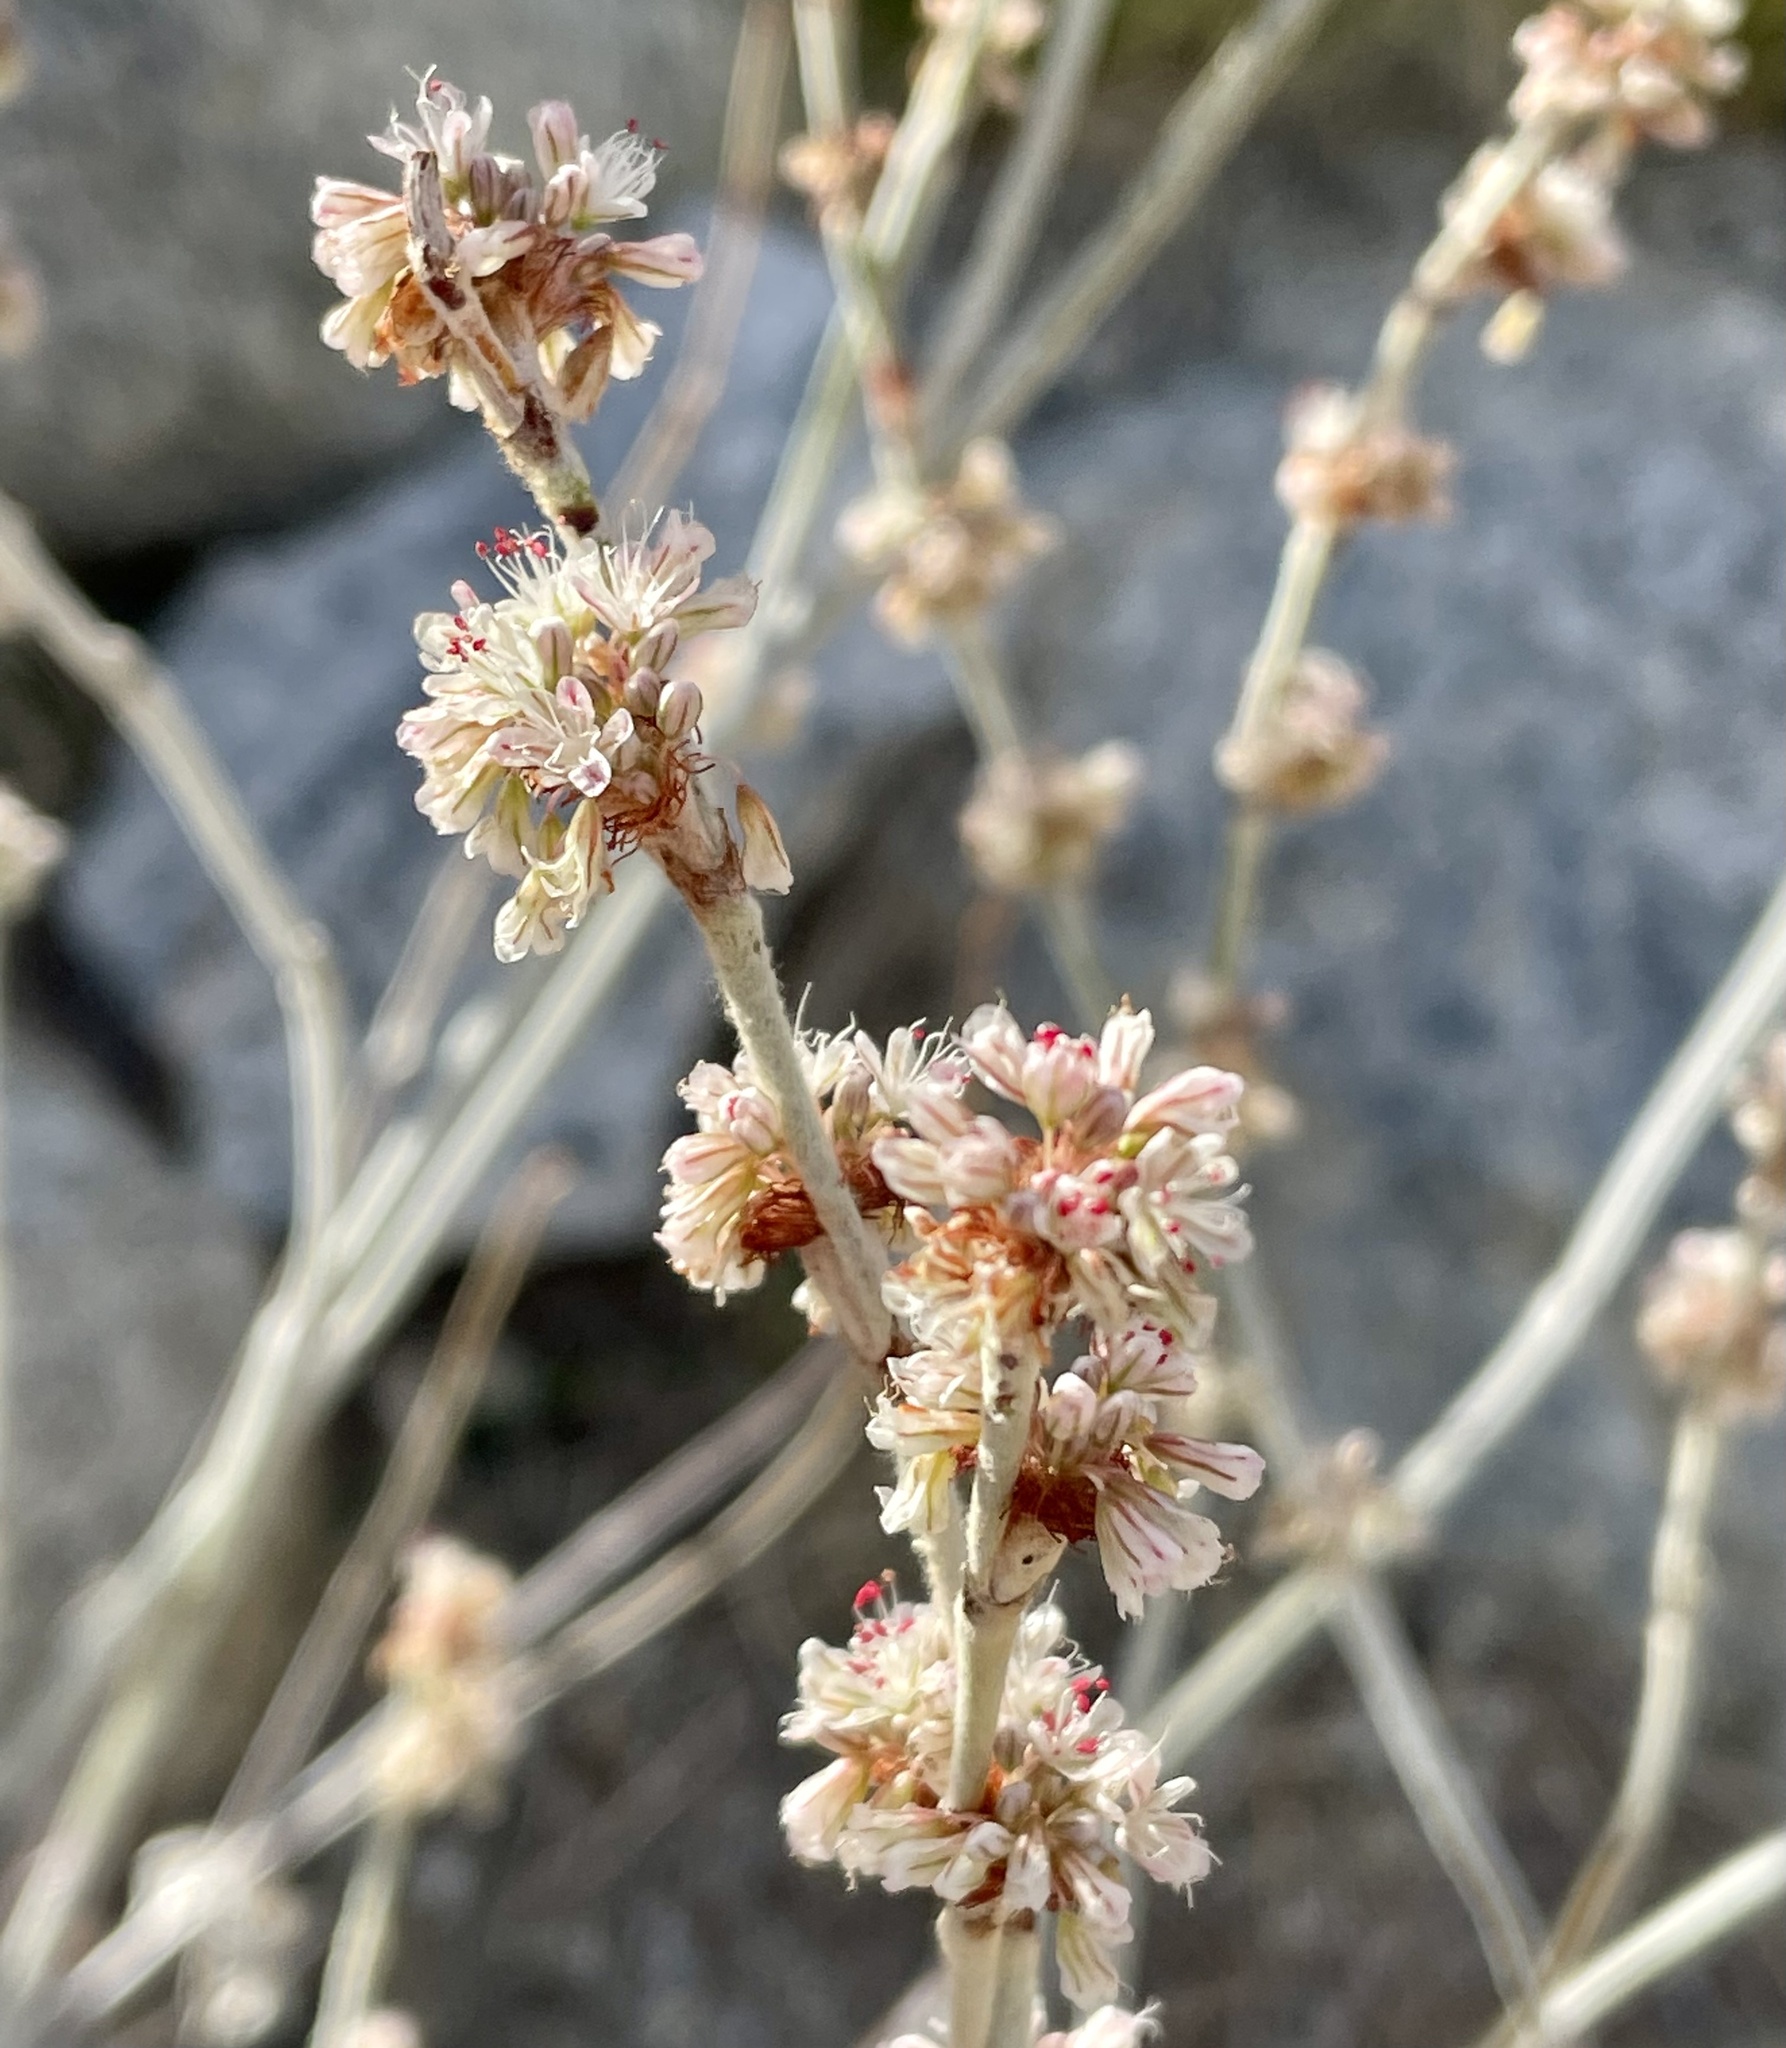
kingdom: Plantae
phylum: Tracheophyta
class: Magnoliopsida
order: Caryophyllales
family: Polygonaceae
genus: Eriogonum
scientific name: Eriogonum elongatum
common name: Long-stem wild buckwheat
